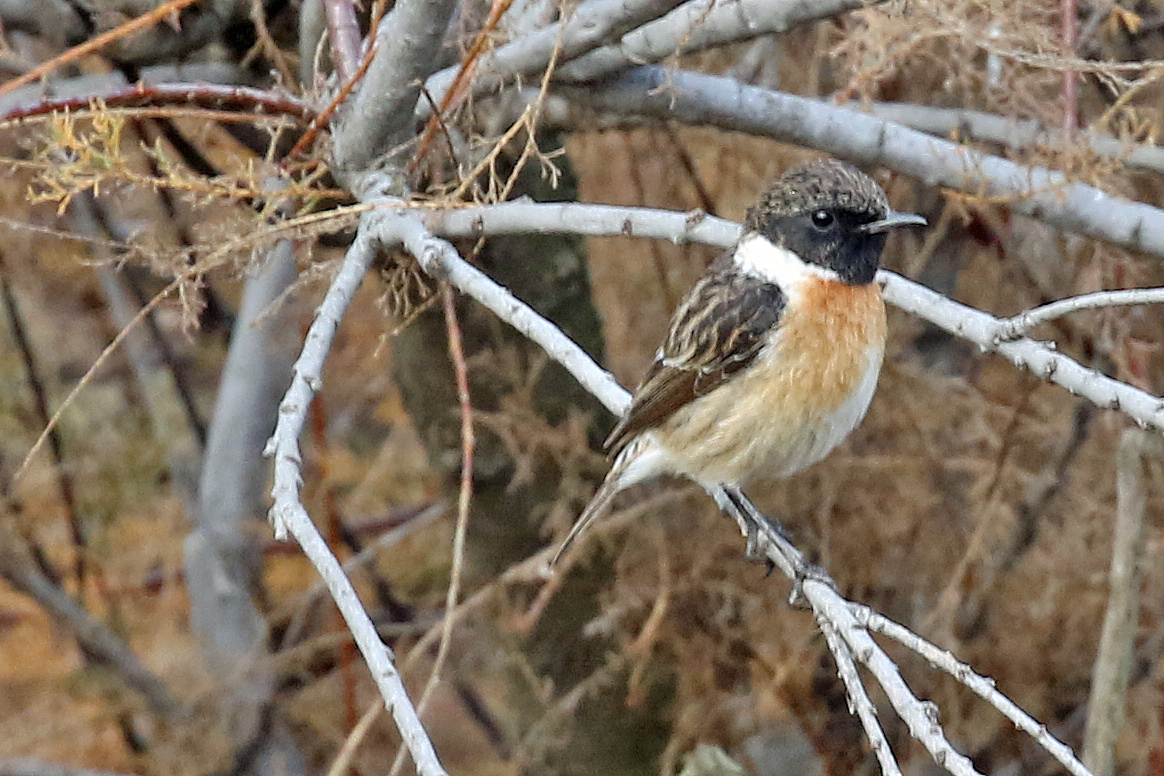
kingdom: Animalia
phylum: Chordata
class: Aves
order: Passeriformes
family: Muscicapidae
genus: Saxicola
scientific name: Saxicola rubicola
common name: European stonechat
